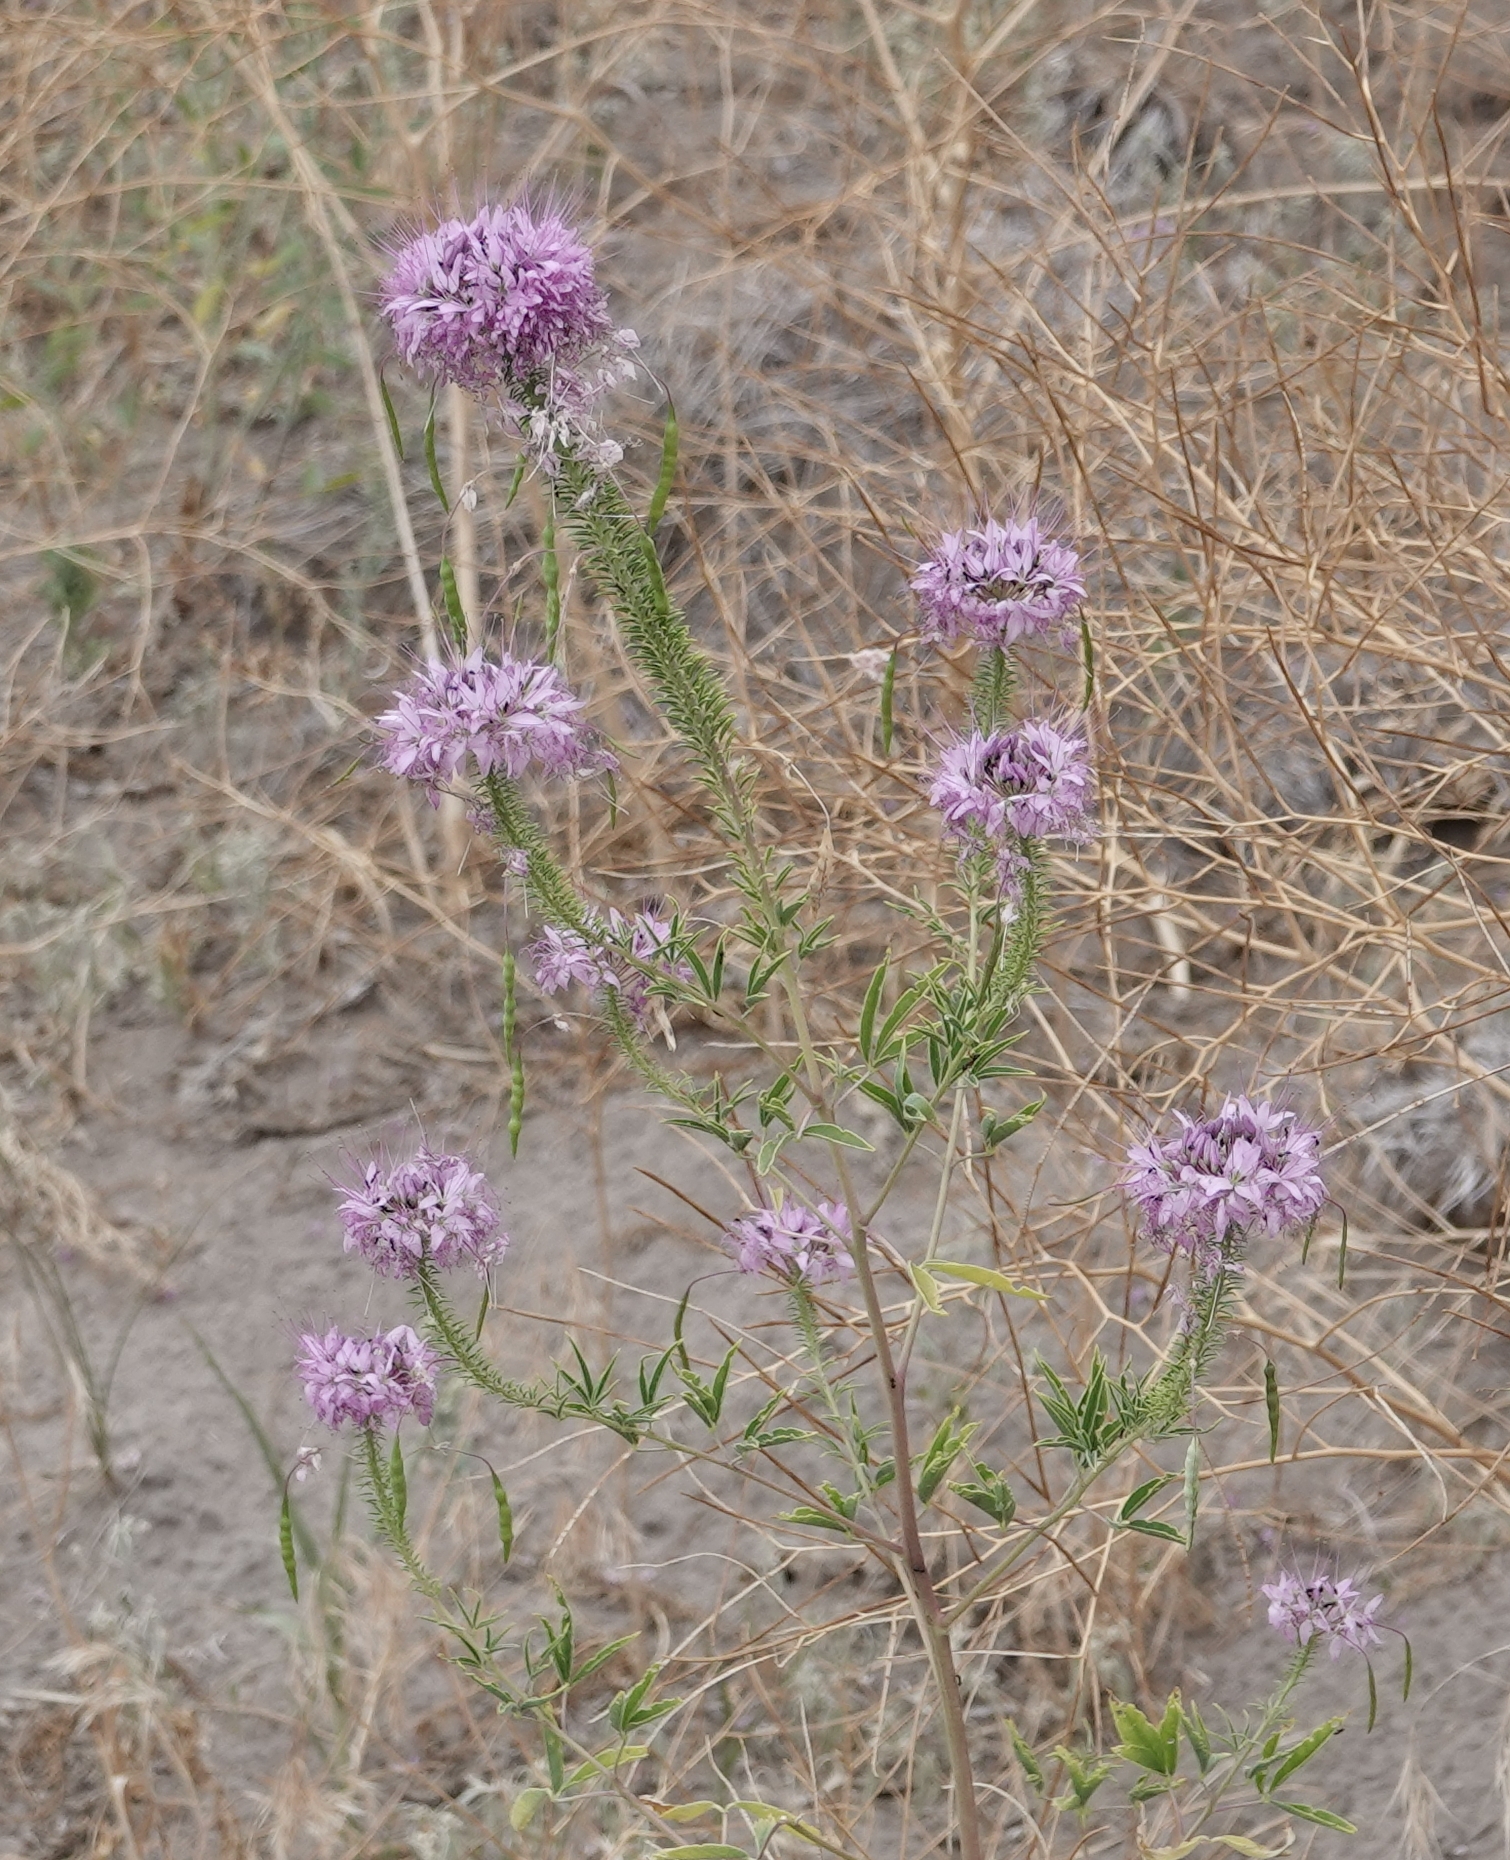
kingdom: Plantae
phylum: Tracheophyta
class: Magnoliopsida
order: Brassicales
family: Cleomaceae
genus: Cleomella
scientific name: Cleomella serrulata
